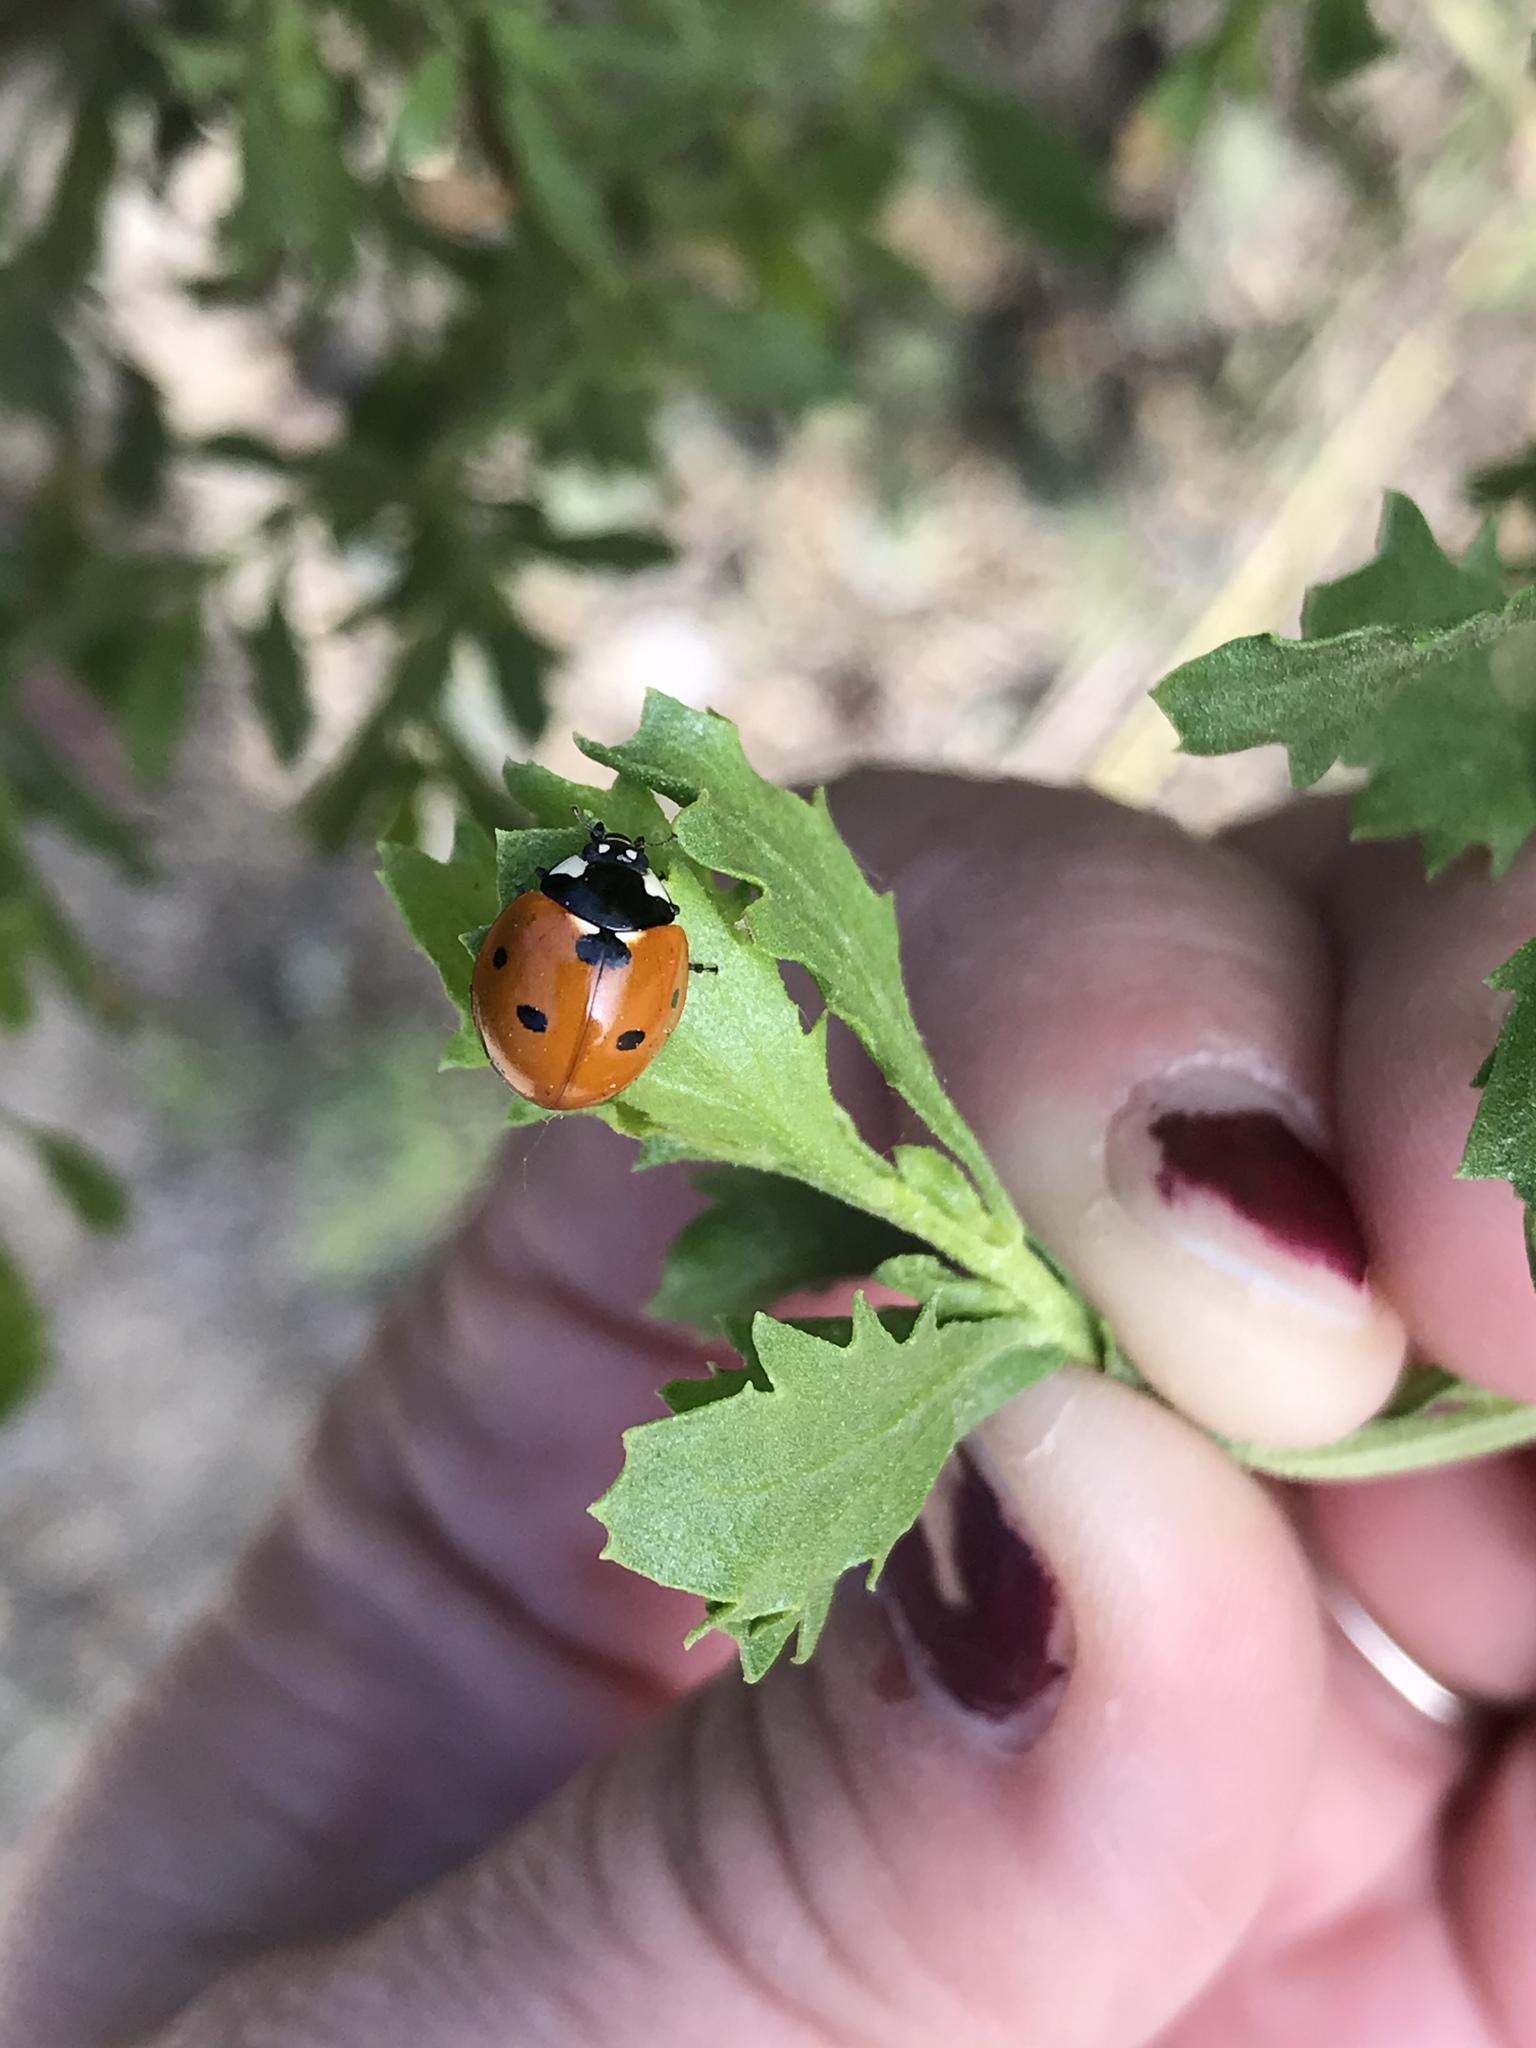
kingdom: Animalia
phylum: Arthropoda
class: Insecta
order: Coleoptera
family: Coccinellidae
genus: Coccinella
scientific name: Coccinella septempunctata
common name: Sevenspotted lady beetle
